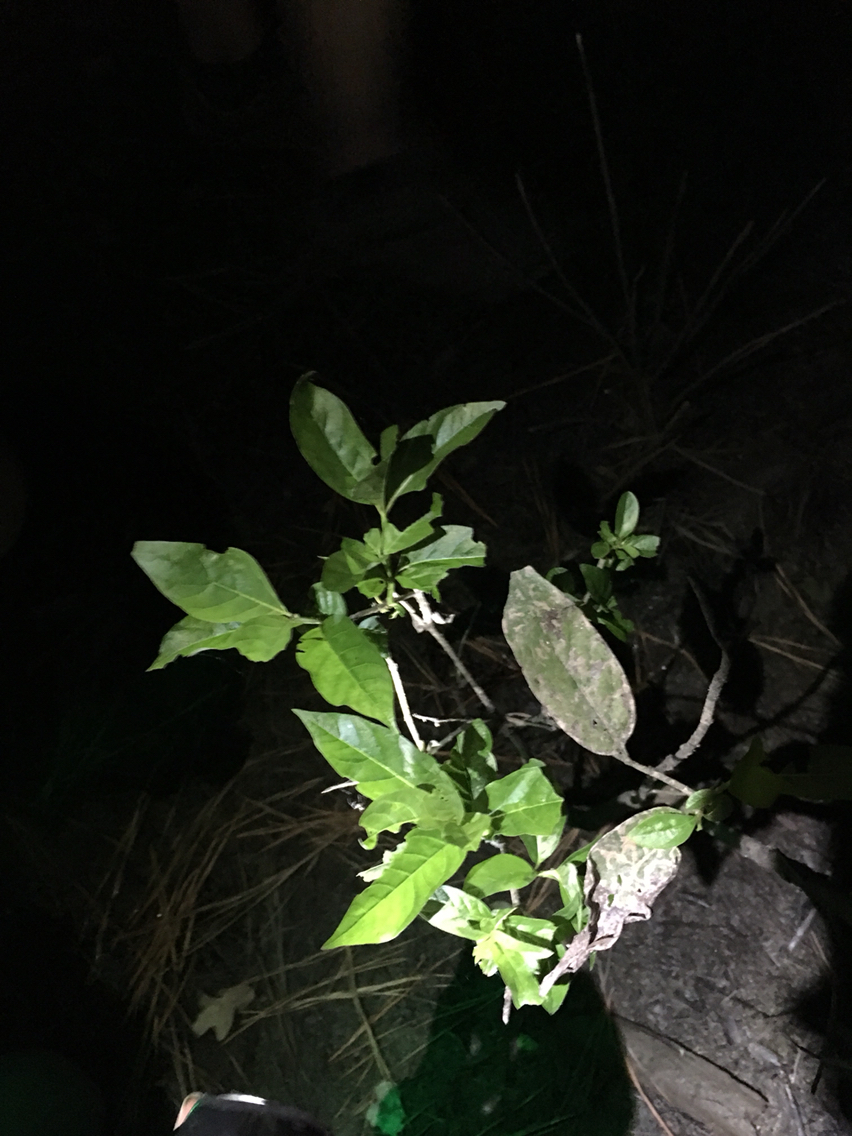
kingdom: Plantae
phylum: Tracheophyta
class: Magnoliopsida
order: Gentianales
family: Rubiaceae
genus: Cephalanthus
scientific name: Cephalanthus occidentalis
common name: Button-willow
